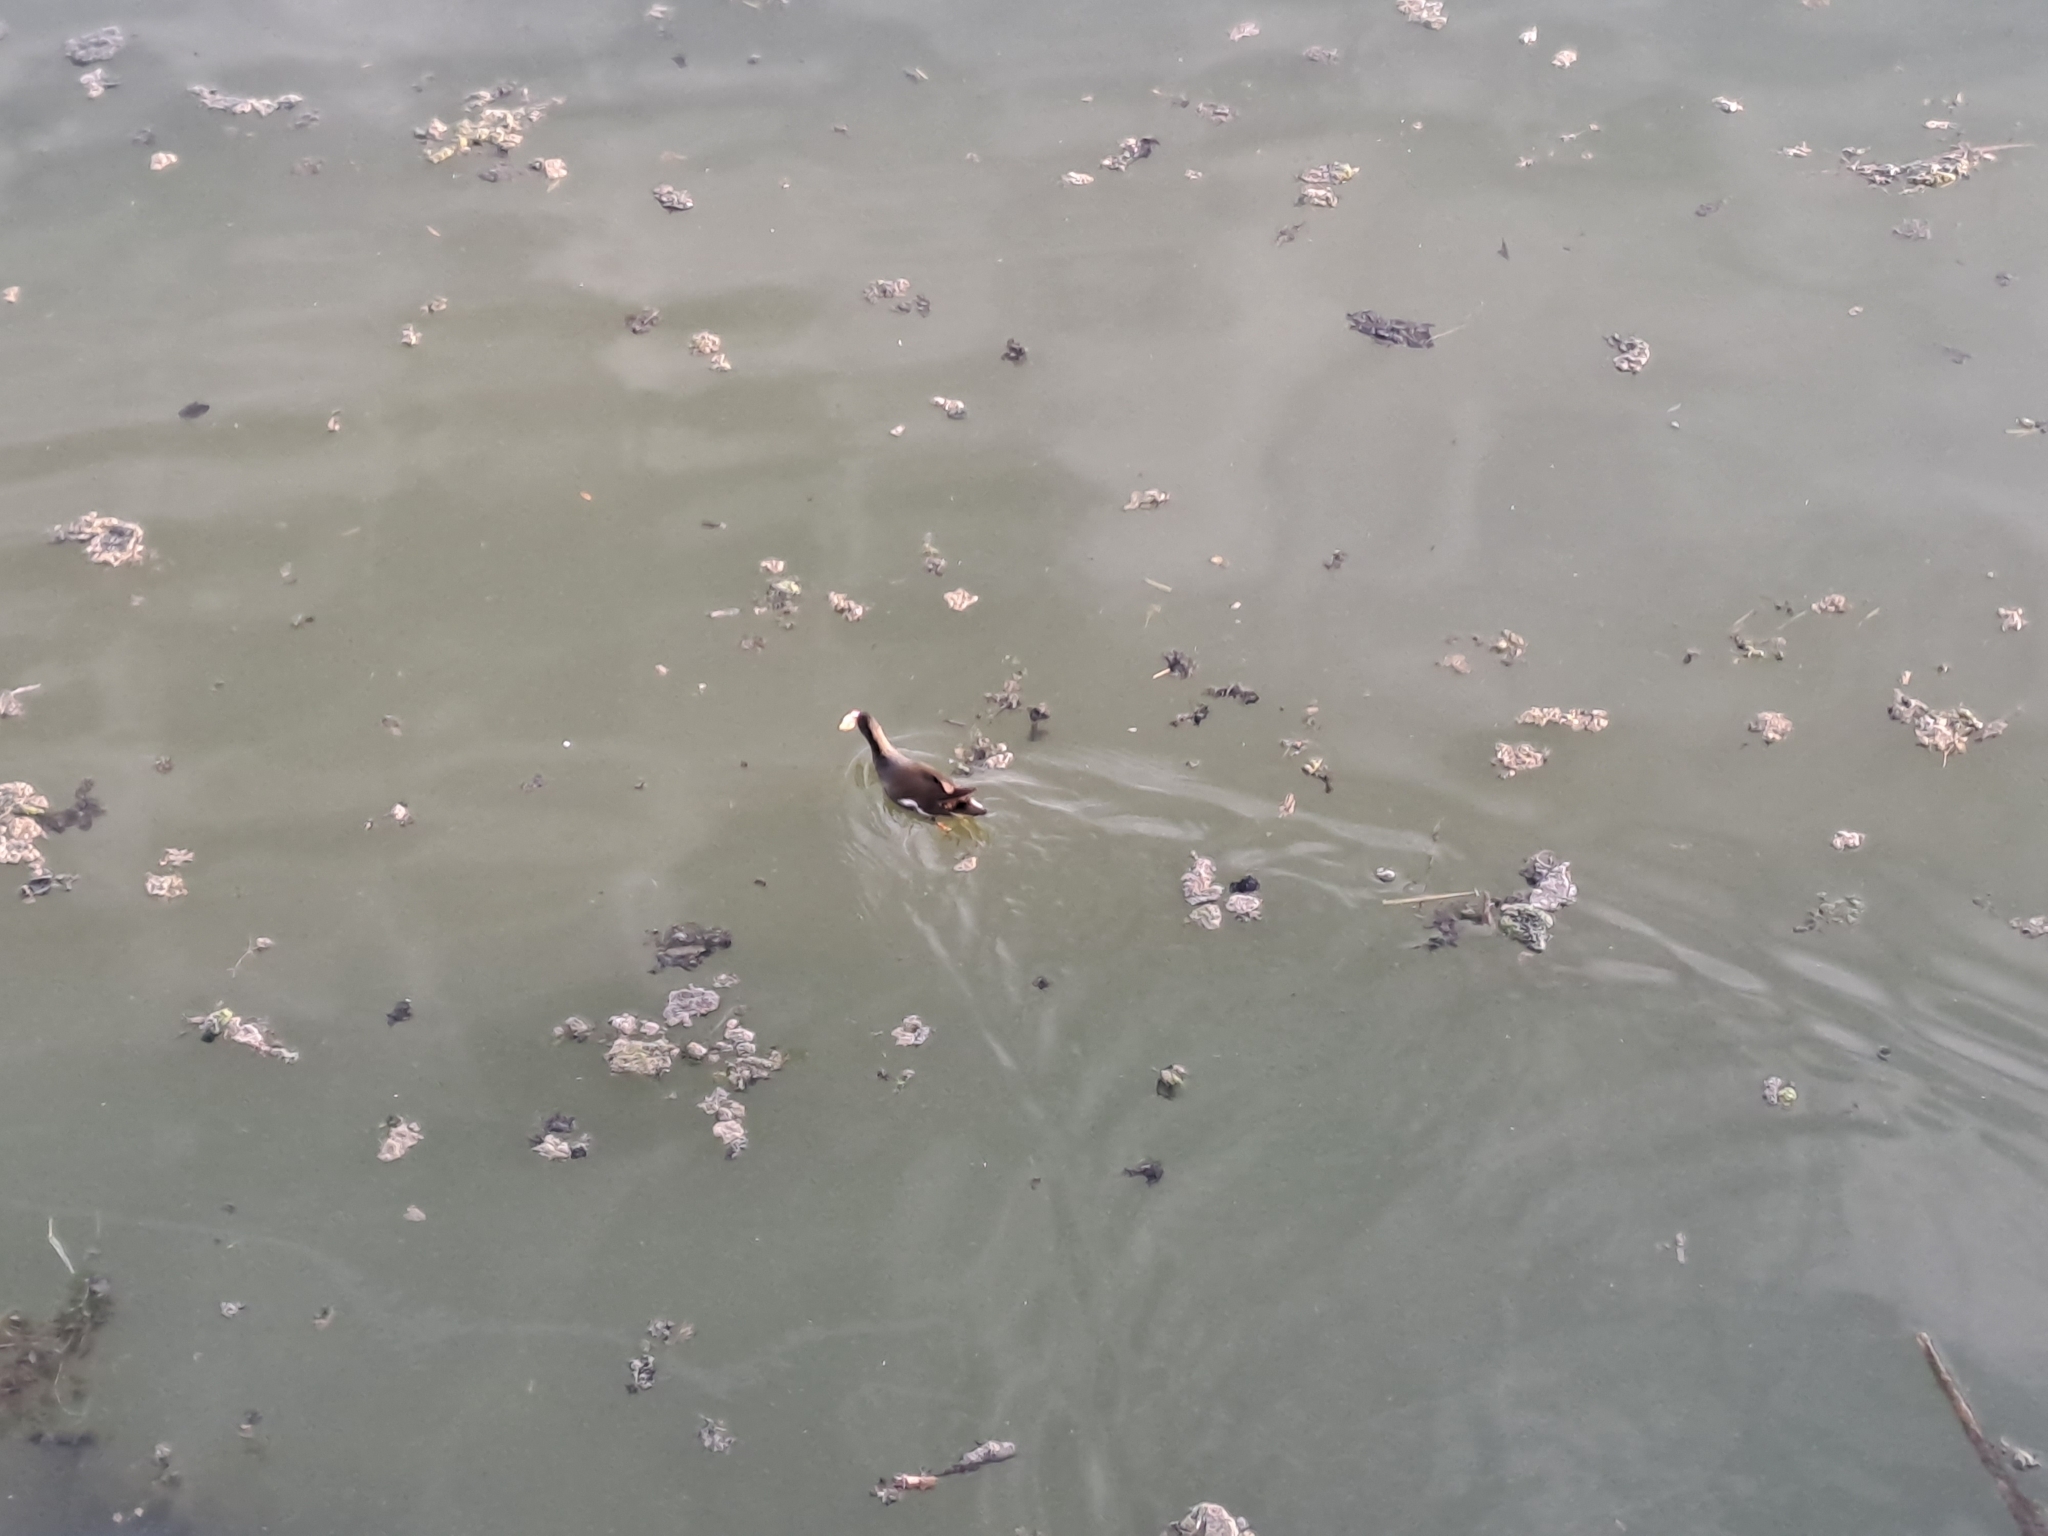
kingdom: Animalia
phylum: Chordata
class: Aves
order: Gruiformes
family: Rallidae
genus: Gallinula
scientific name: Gallinula chloropus
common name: Common moorhen
